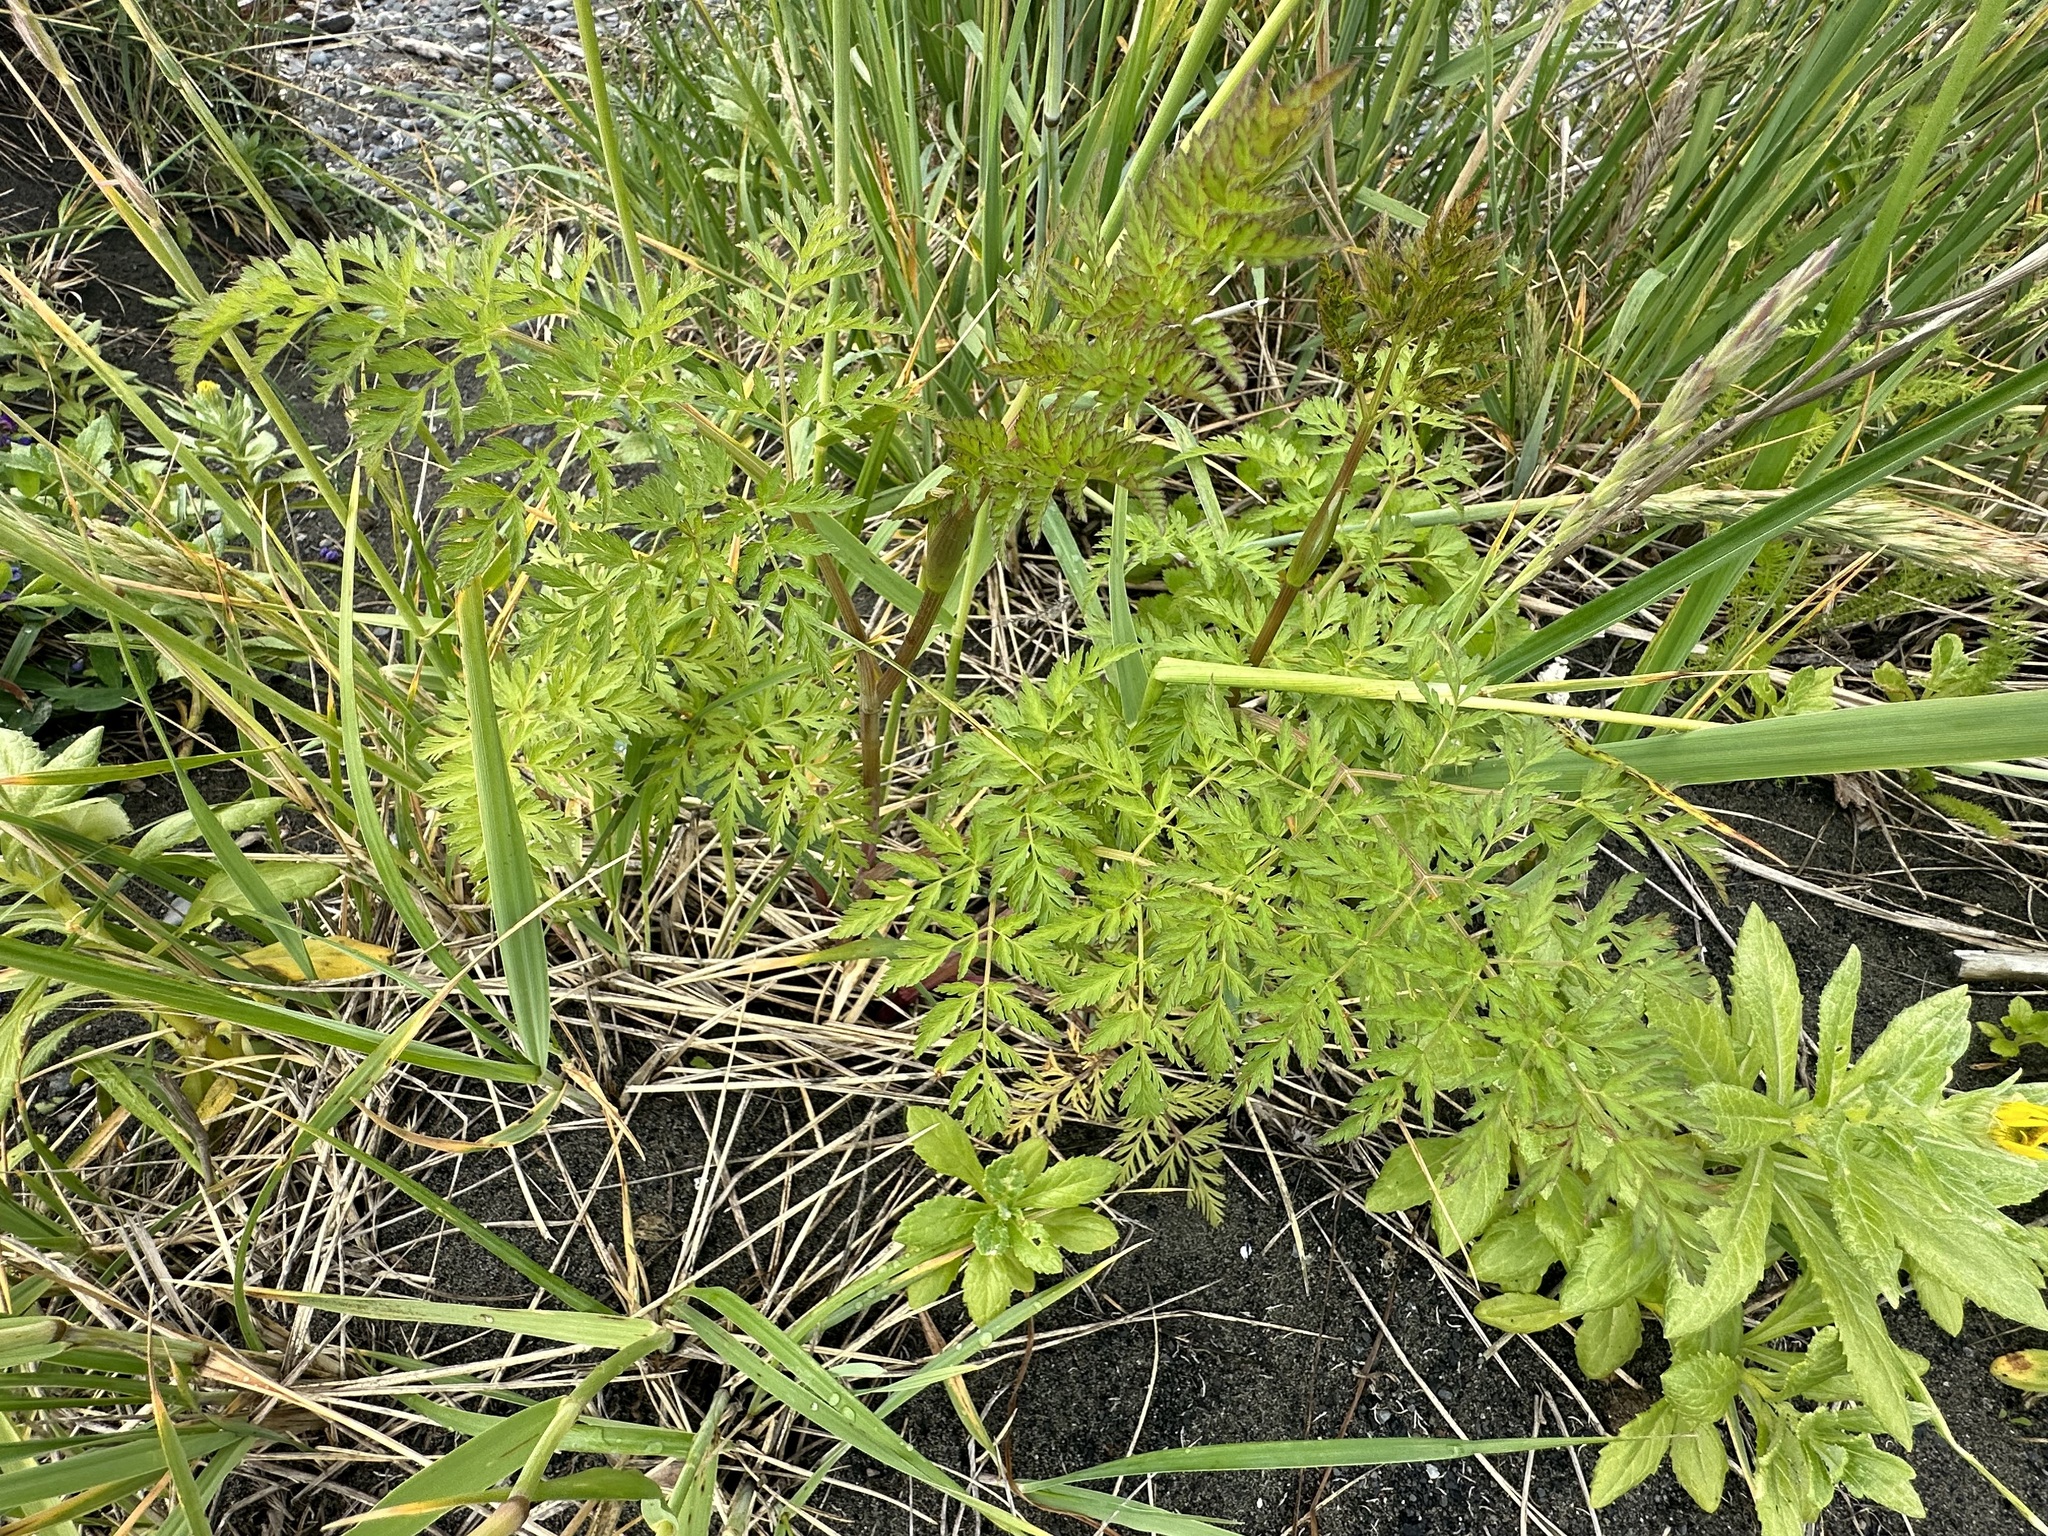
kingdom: Plantae
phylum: Tracheophyta
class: Magnoliopsida
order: Apiales
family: Apiaceae
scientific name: Apiaceae
